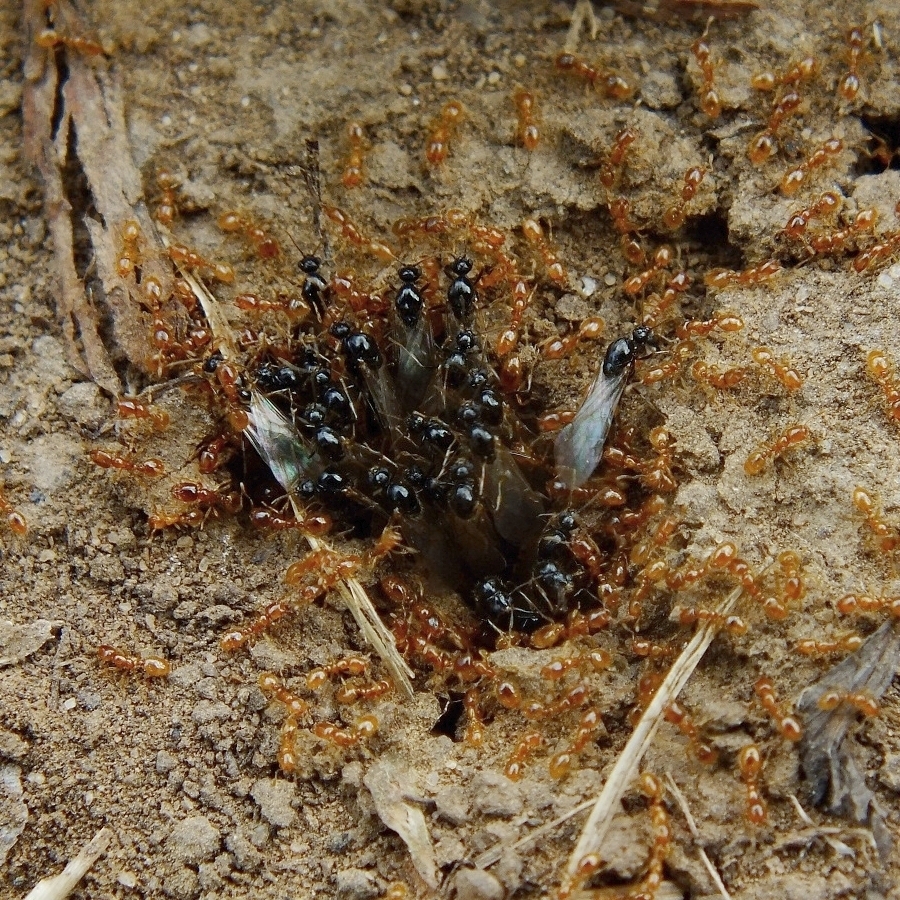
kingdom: Animalia
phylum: Arthropoda
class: Insecta
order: Hymenoptera
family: Formicidae
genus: Solenopsis
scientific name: Solenopsis fugax
